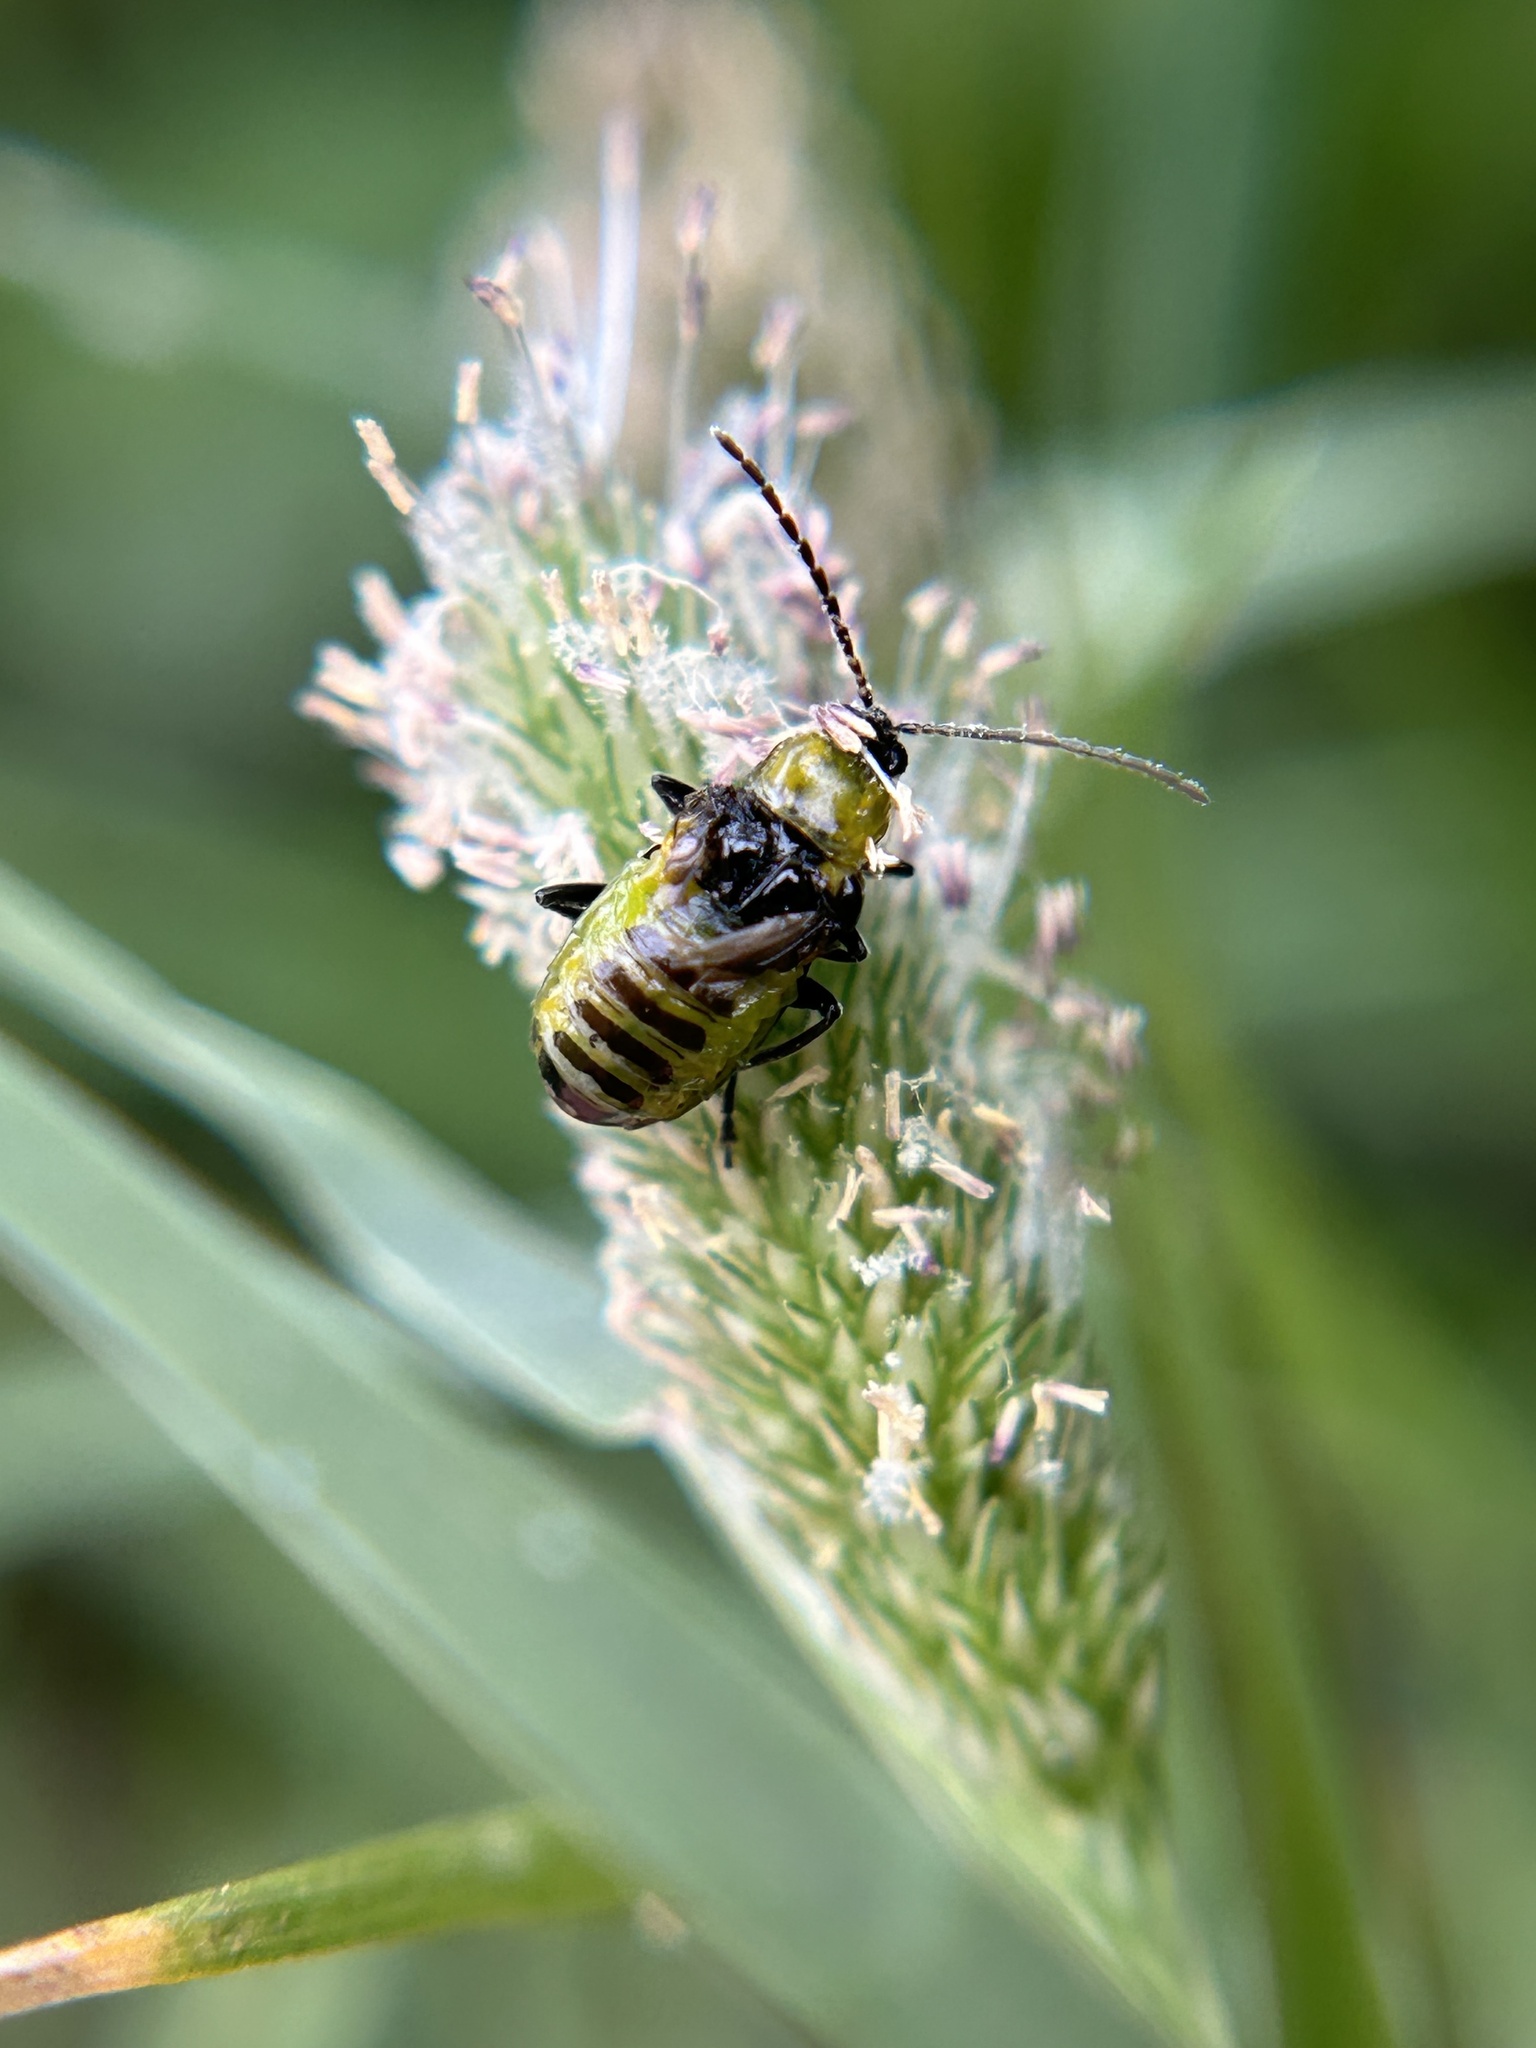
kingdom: Animalia
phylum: Arthropoda
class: Insecta
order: Coleoptera
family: Chrysomelidae
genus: Diabrotica
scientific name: Diabrotica undecimpunctata
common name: Spotted cucumber beetle
